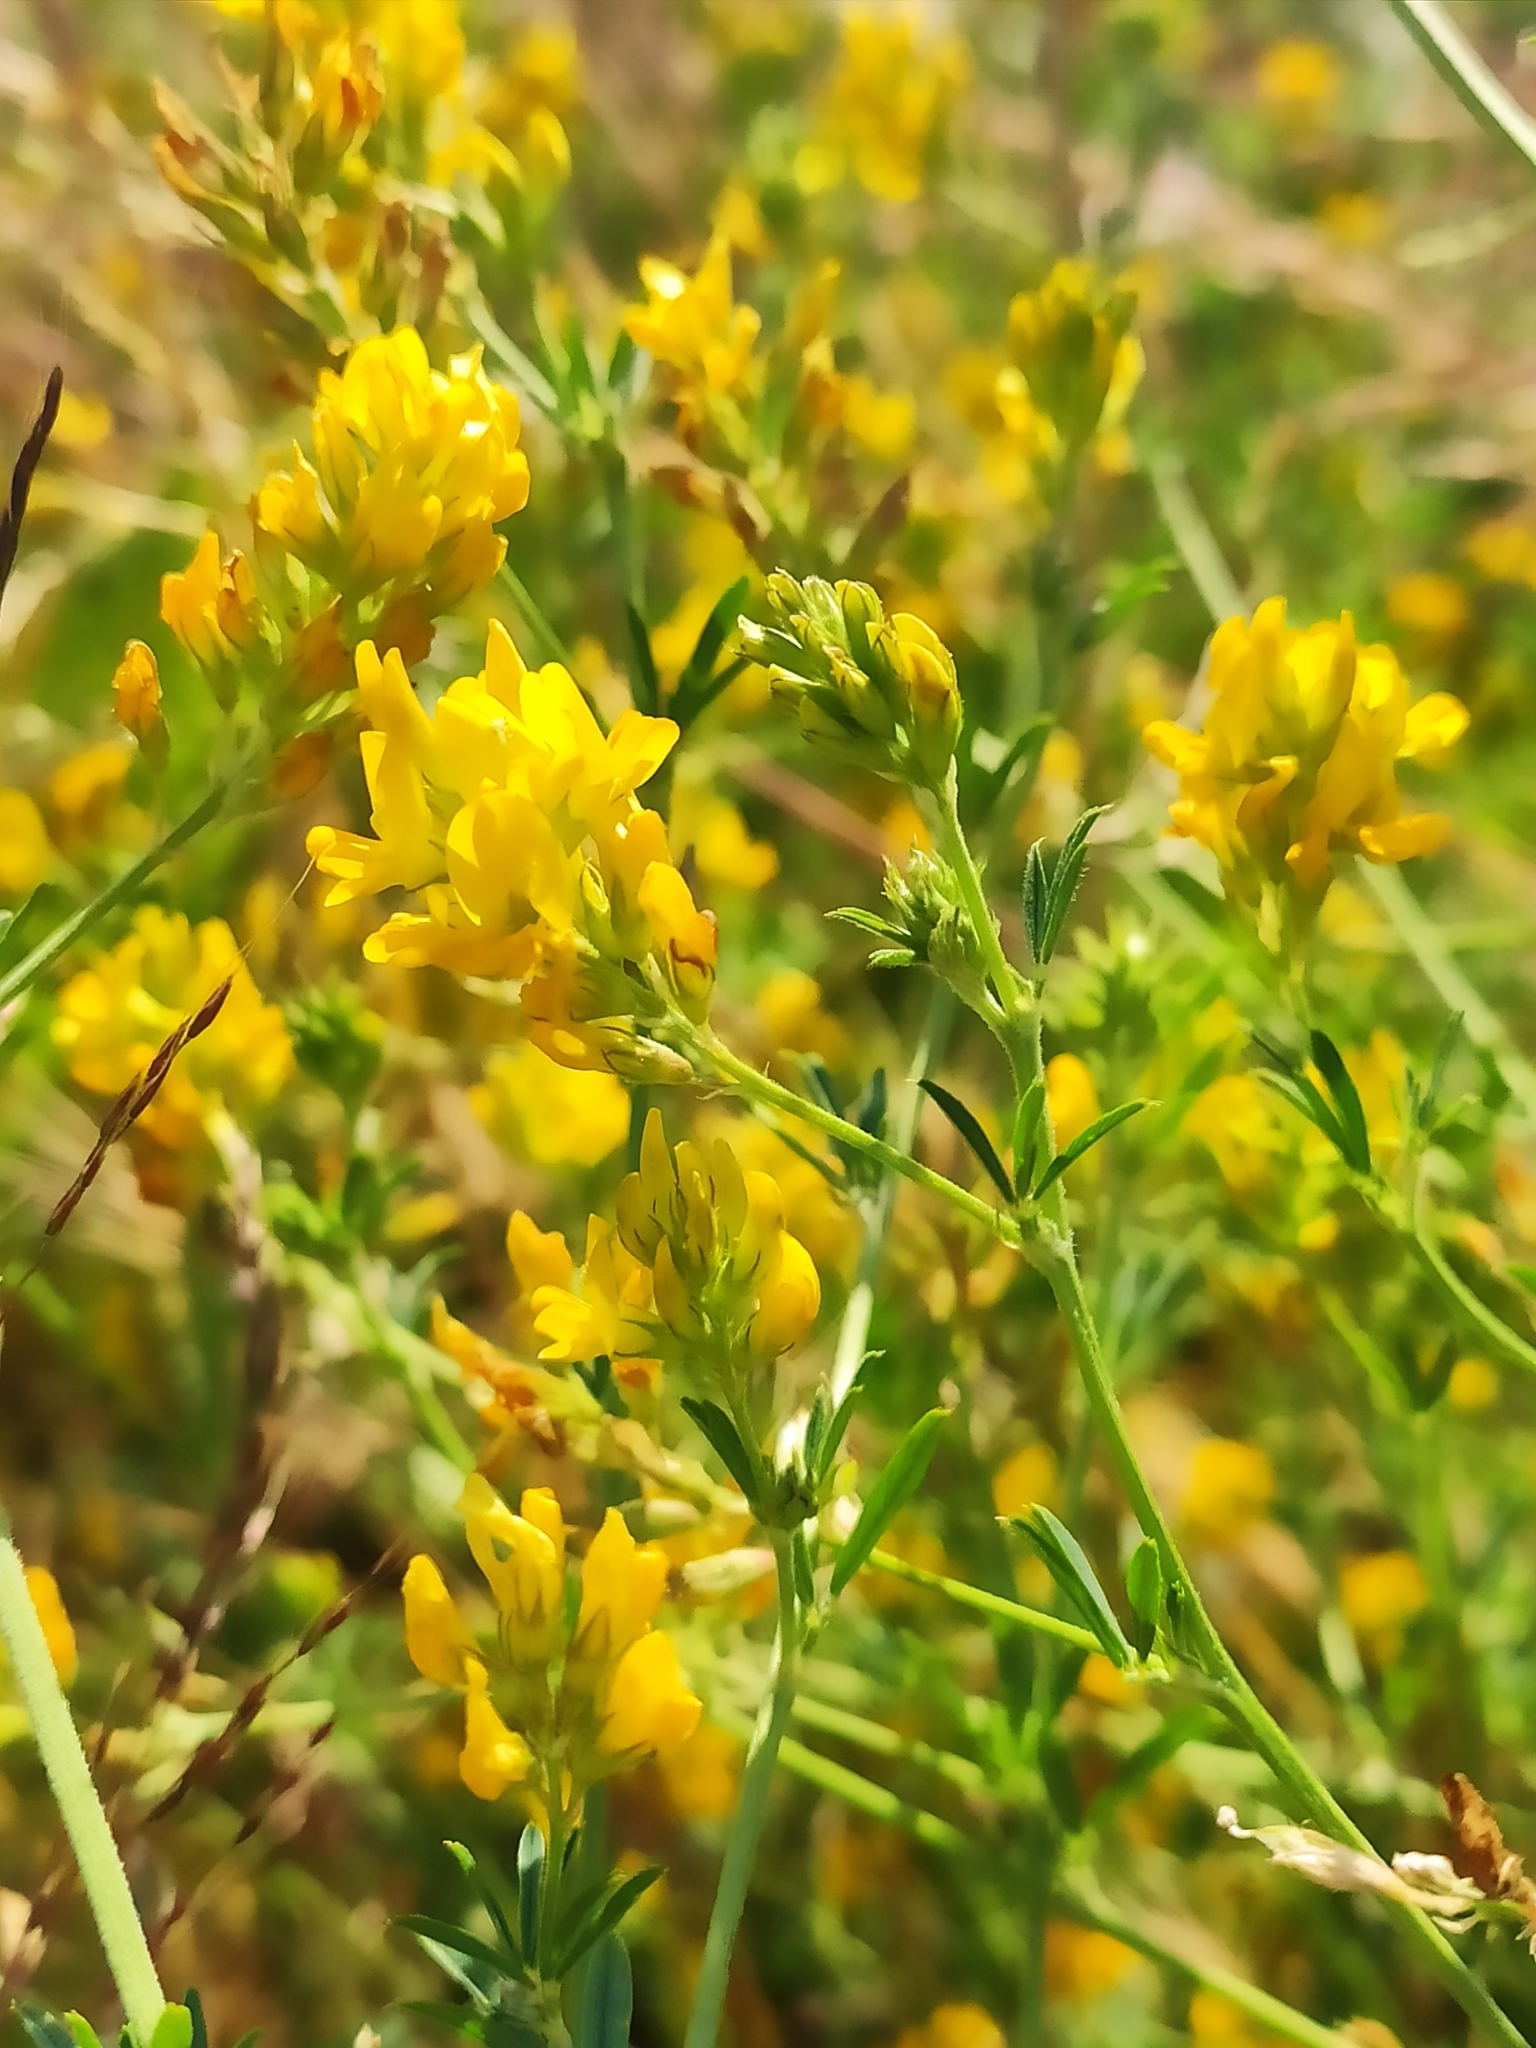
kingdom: Plantae
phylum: Tracheophyta
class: Magnoliopsida
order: Fabales
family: Fabaceae
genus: Medicago
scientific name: Medicago falcata
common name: Sickle medick
